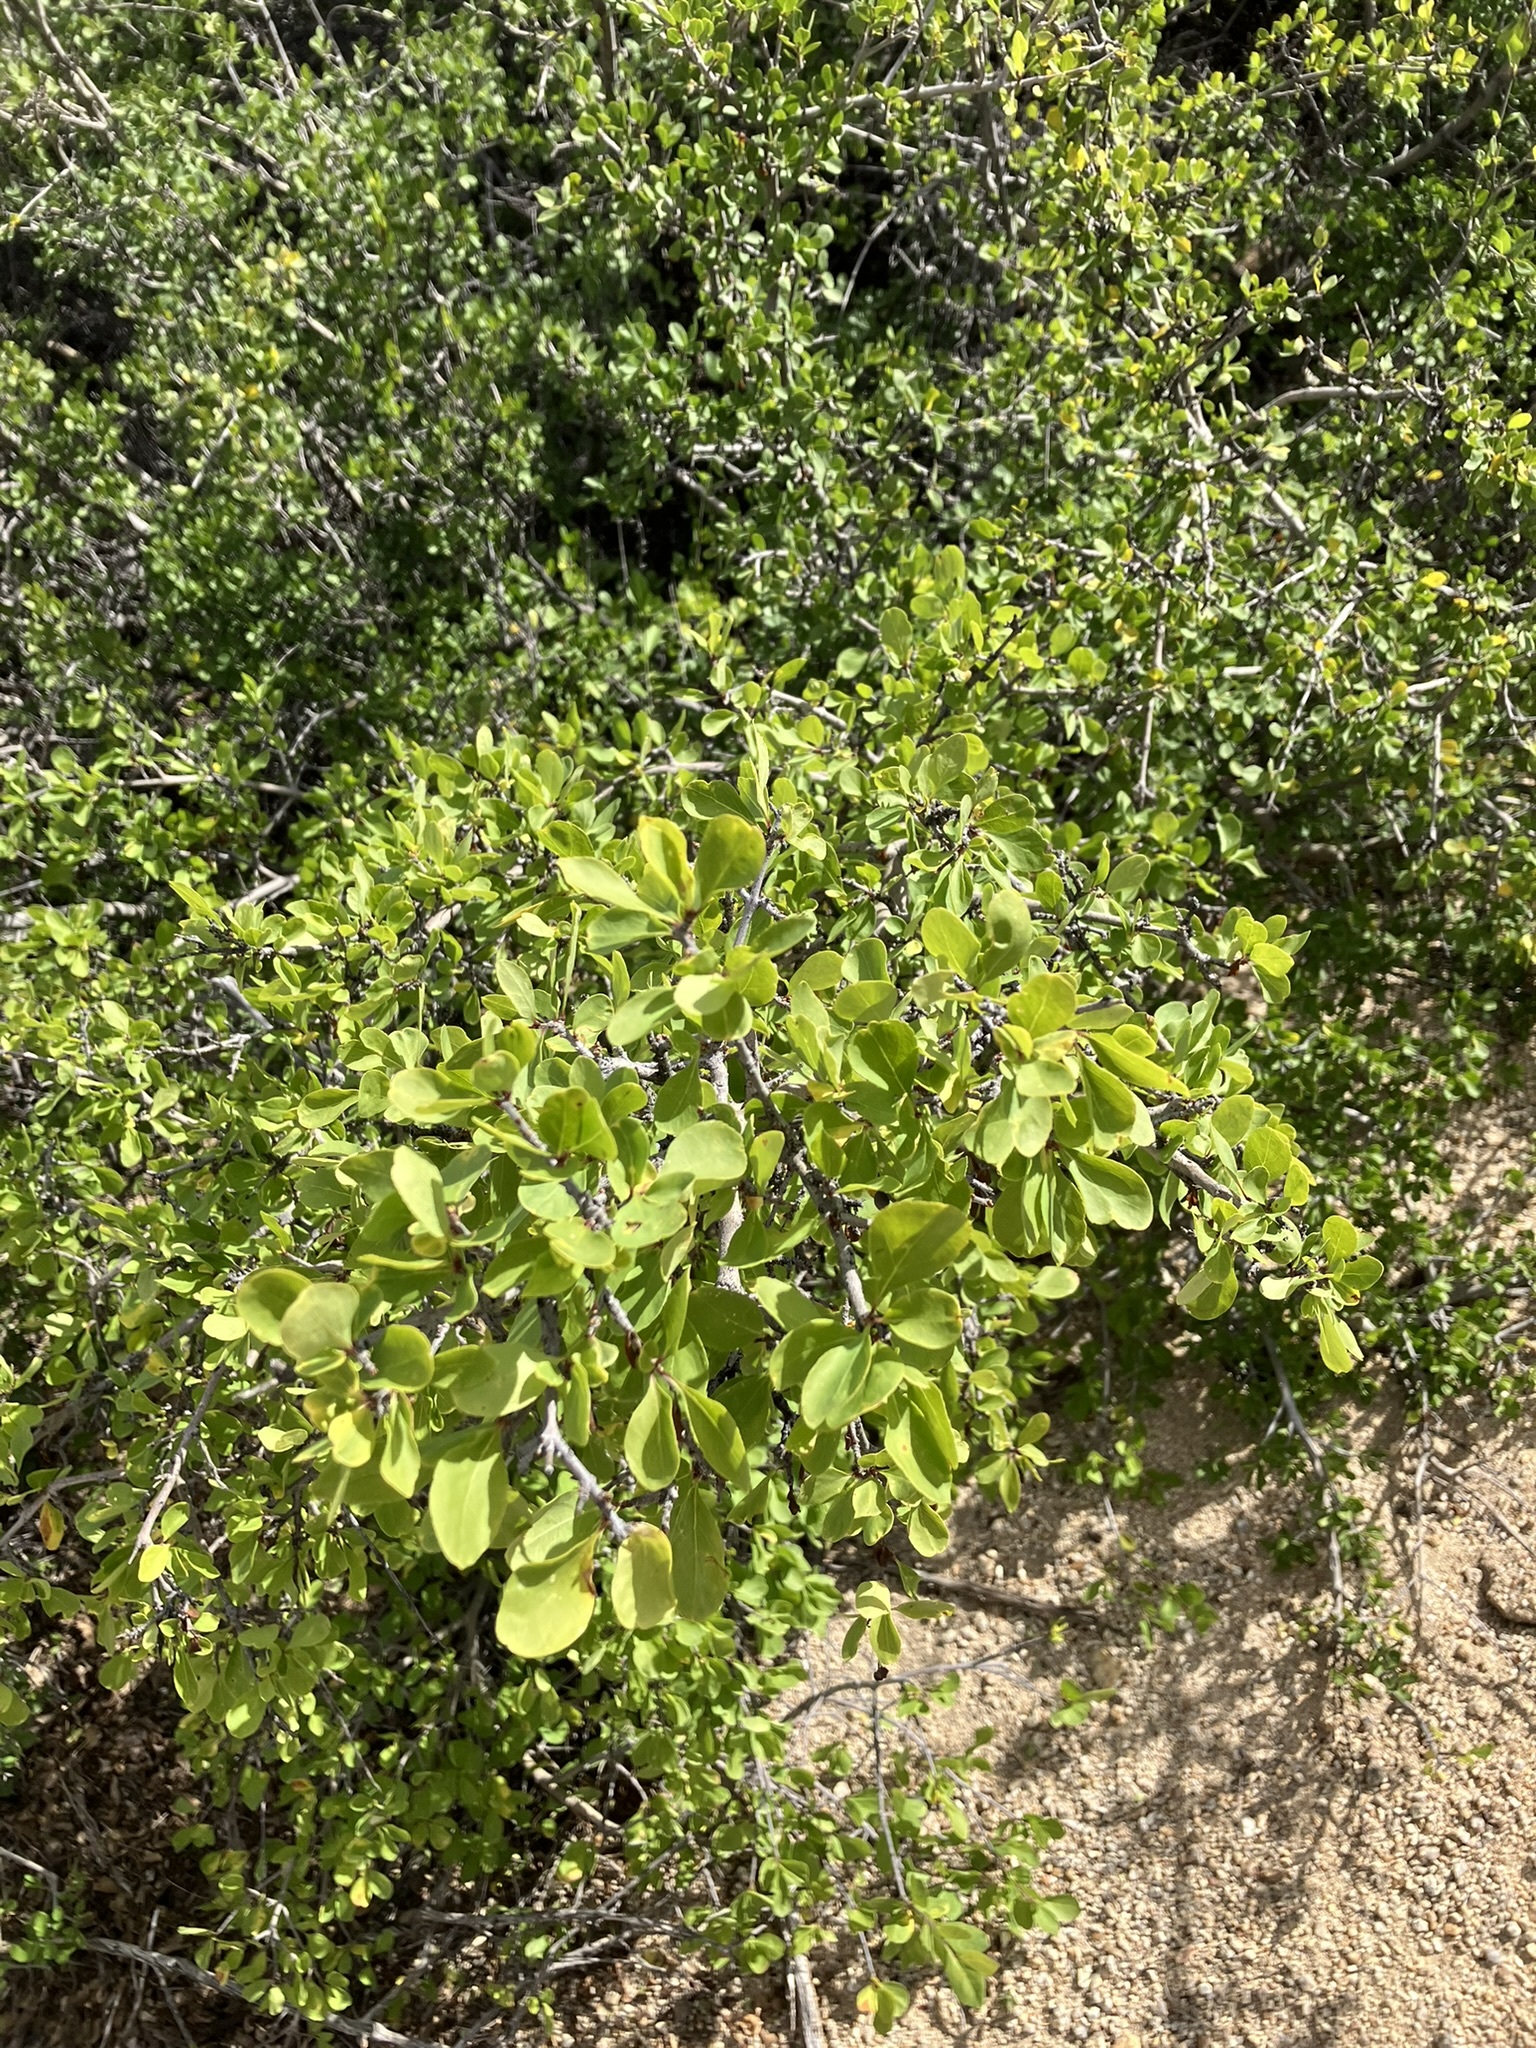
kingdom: Plantae
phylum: Tracheophyta
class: Magnoliopsida
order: Lamiales
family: Oleaceae
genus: Forestiera
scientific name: Forestiera pubescens
